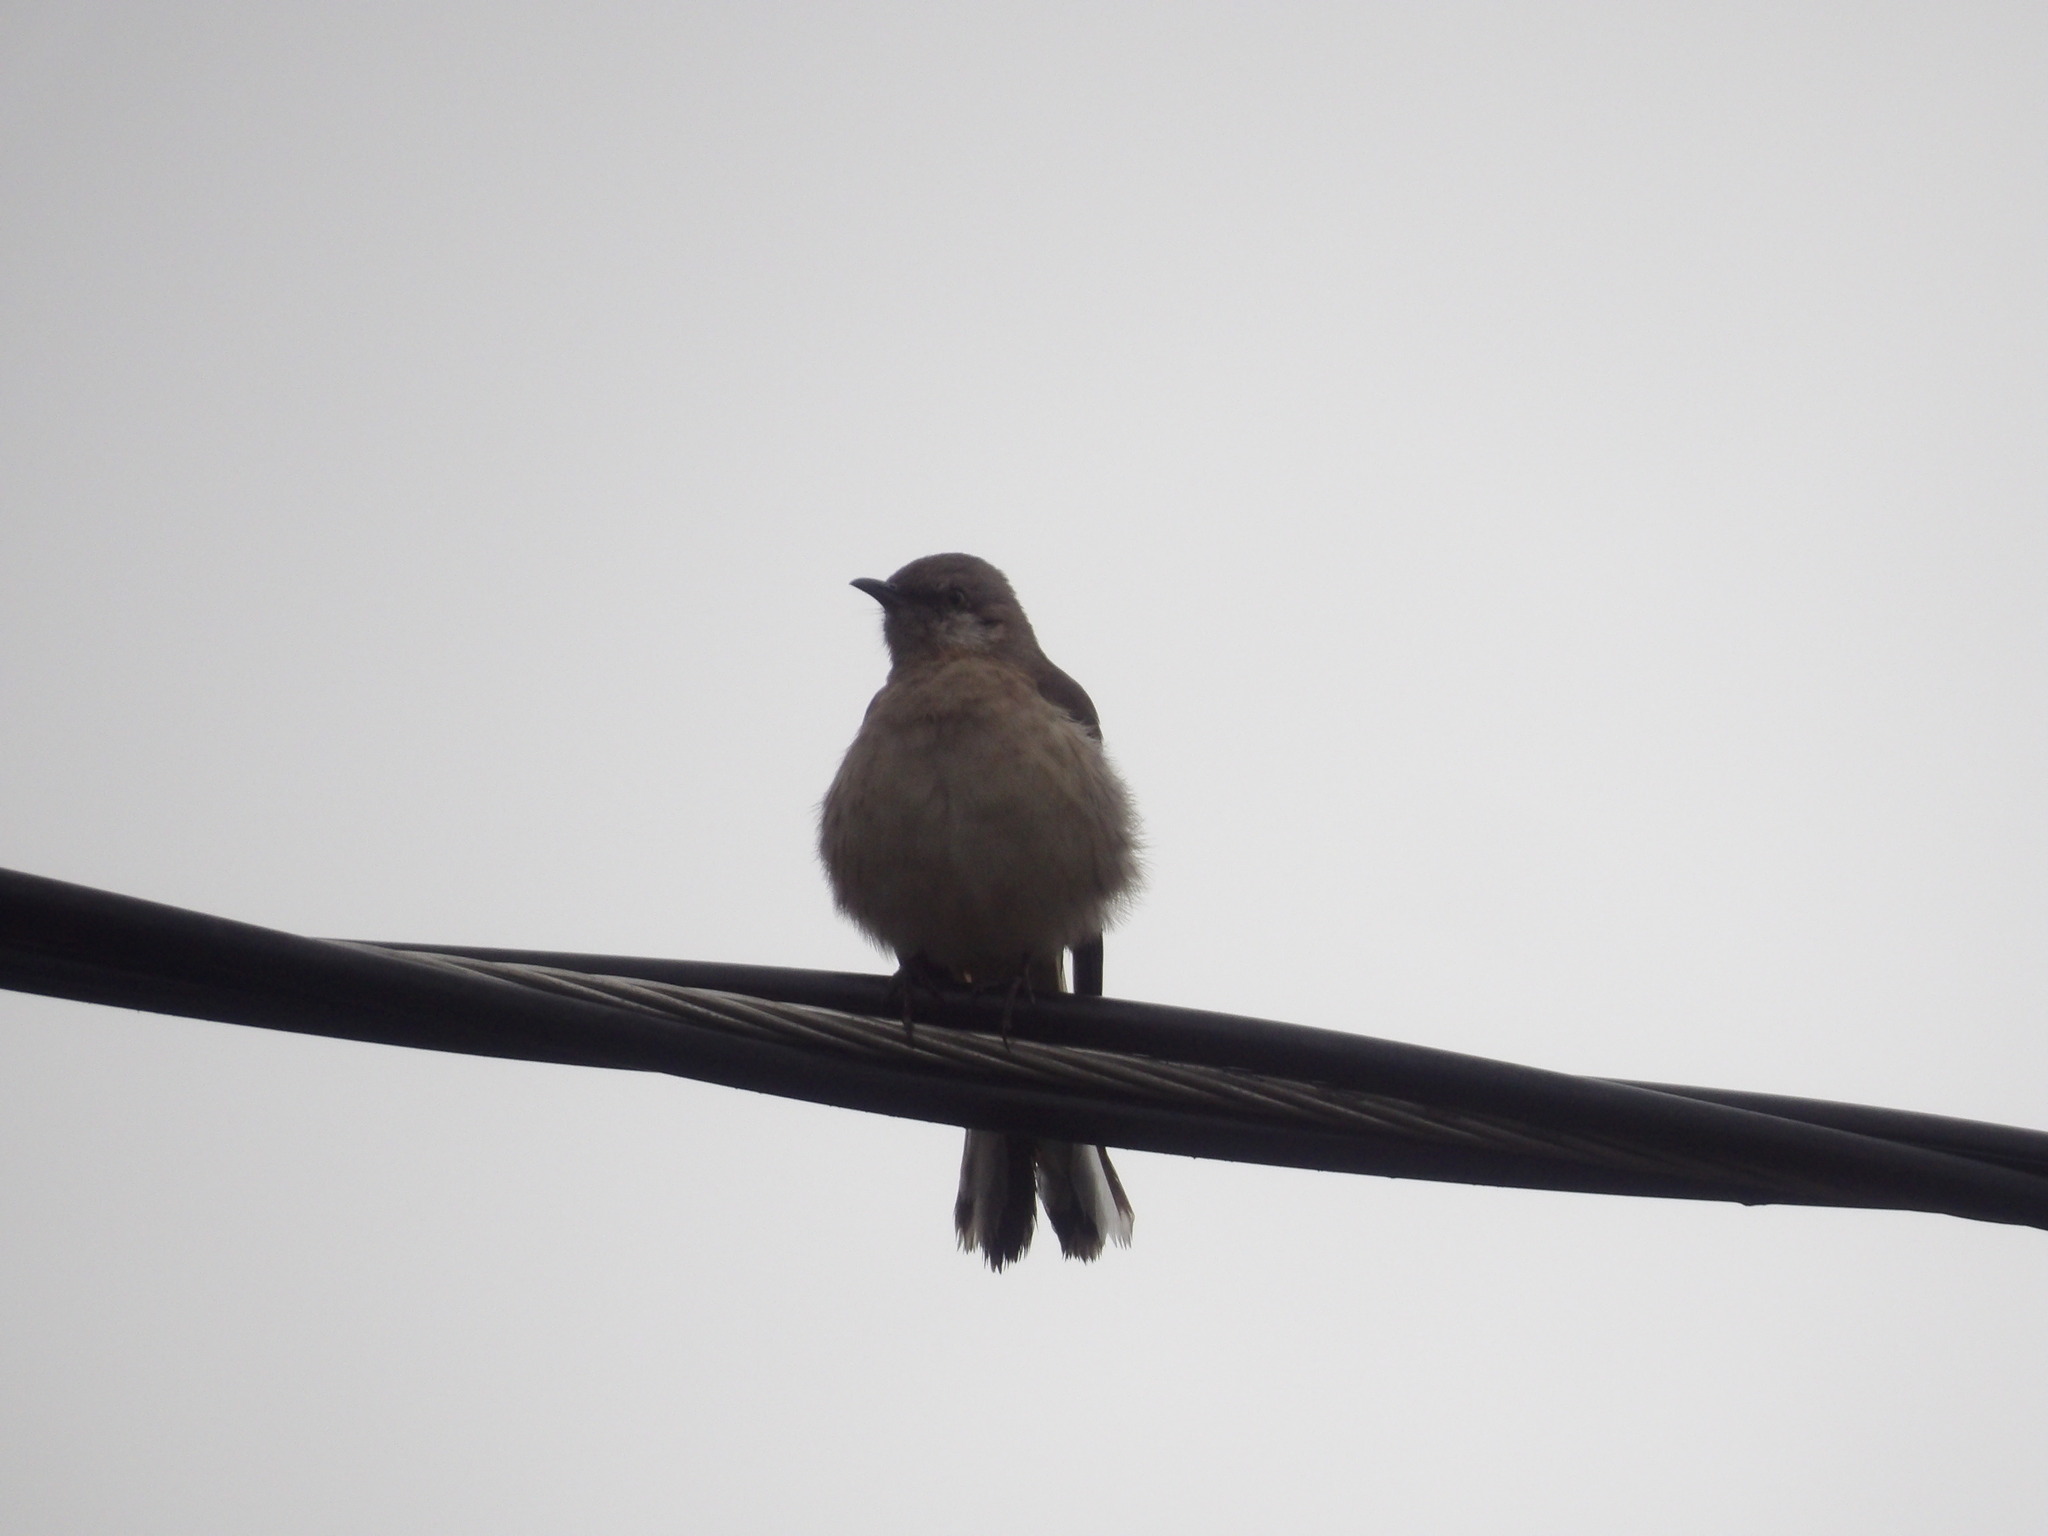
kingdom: Animalia
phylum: Chordata
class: Aves
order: Passeriformes
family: Mimidae
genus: Mimus
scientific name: Mimus polyglottos
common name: Northern mockingbird
